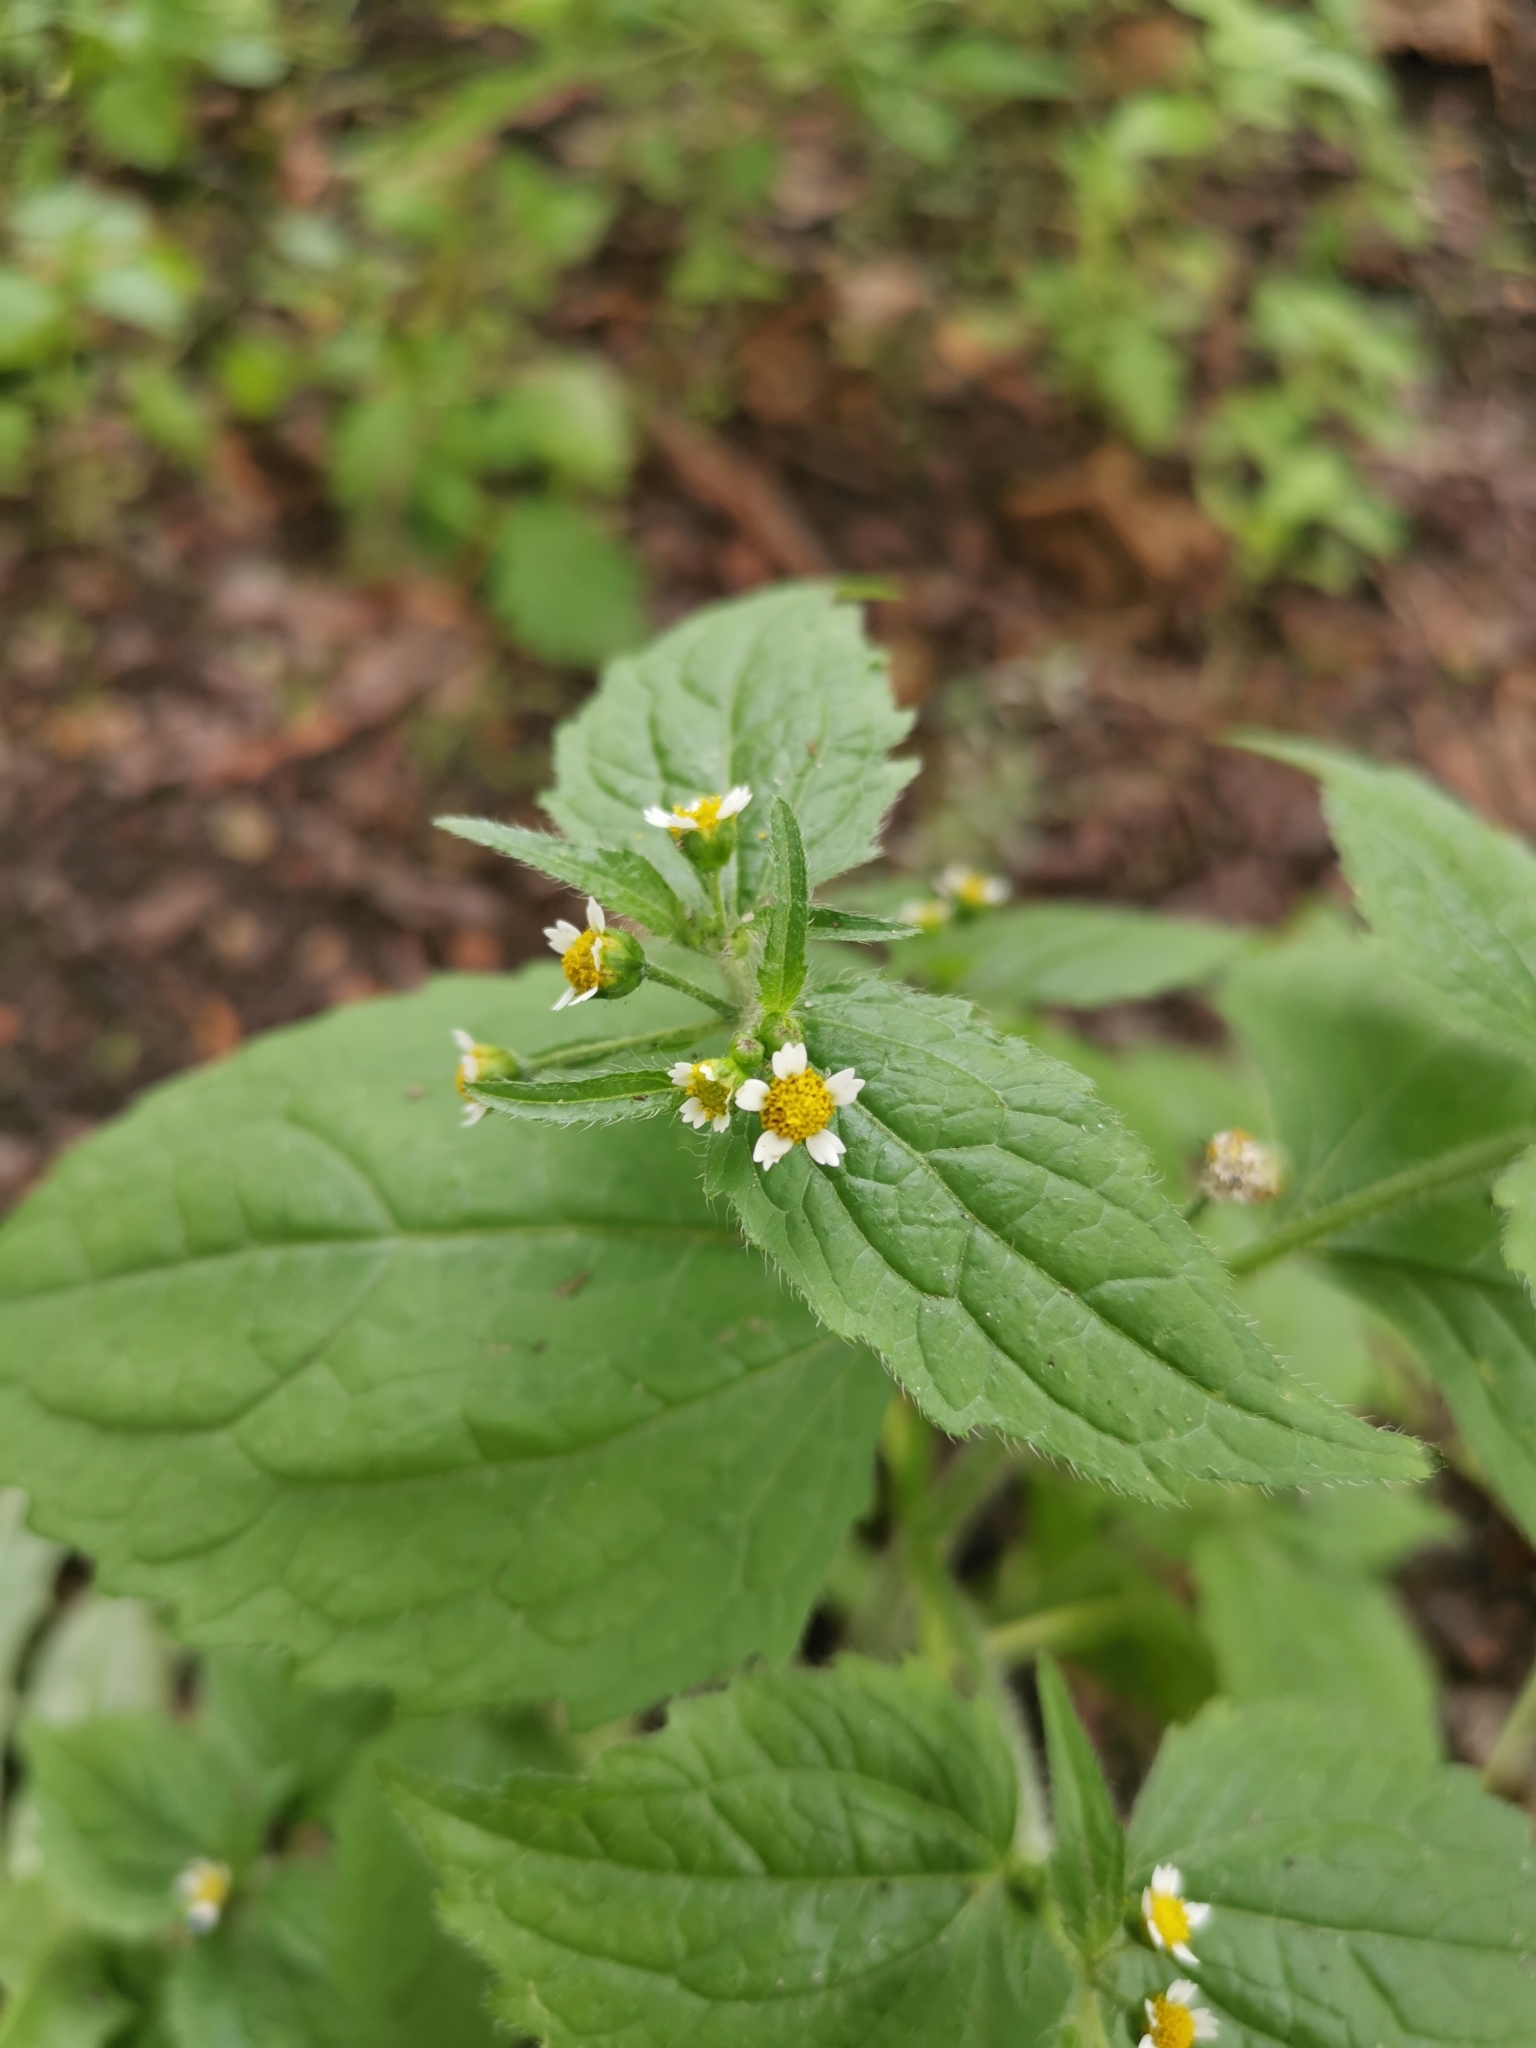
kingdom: Plantae
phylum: Tracheophyta
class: Magnoliopsida
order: Asterales
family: Asteraceae
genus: Galinsoga
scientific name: Galinsoga quadriradiata
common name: Shaggy soldier
